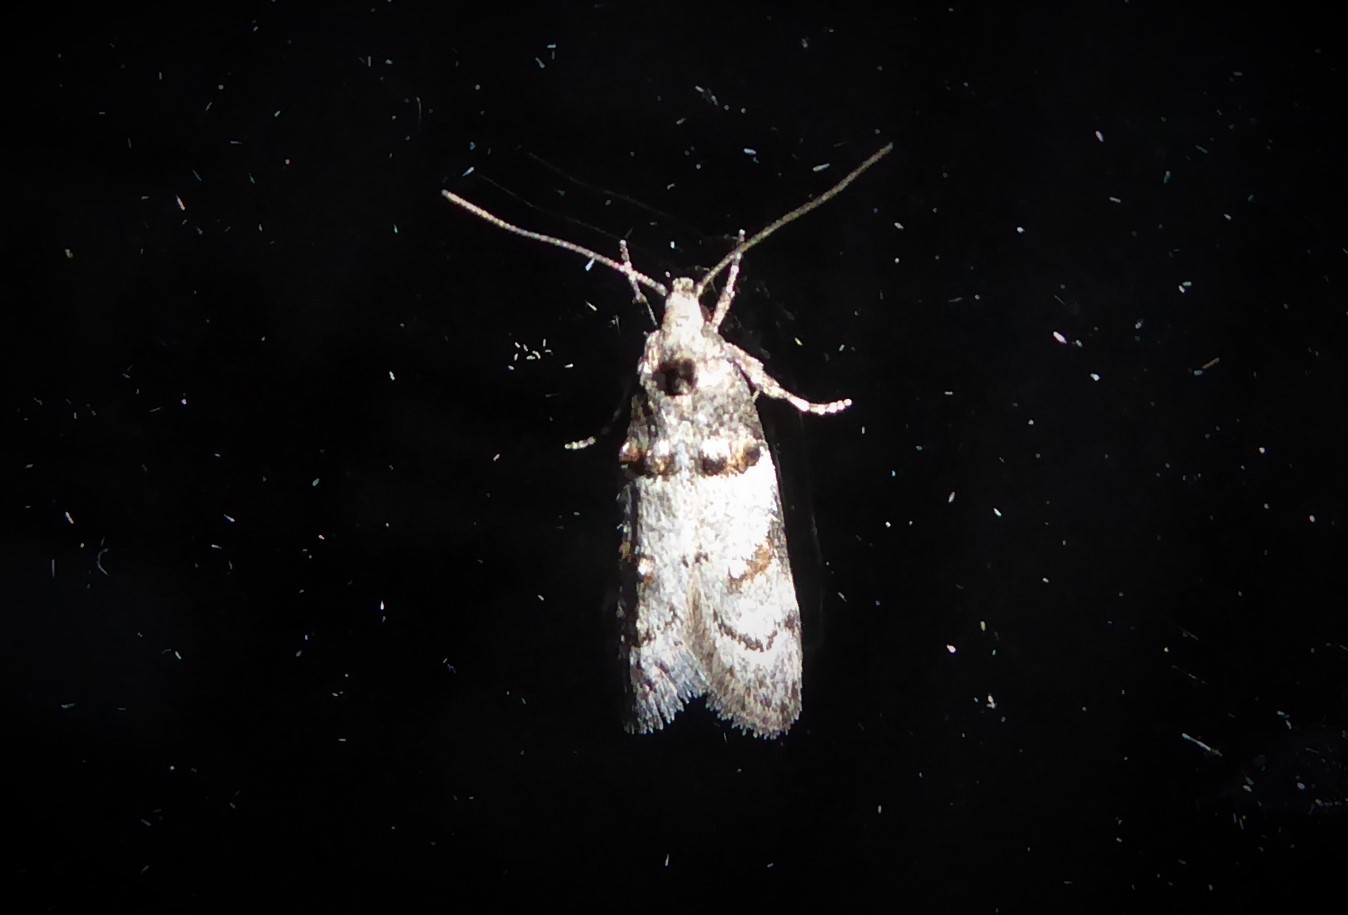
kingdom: Animalia
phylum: Arthropoda
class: Insecta
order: Lepidoptera
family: Oecophoridae
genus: Trachypepla
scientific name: Trachypepla contritella
